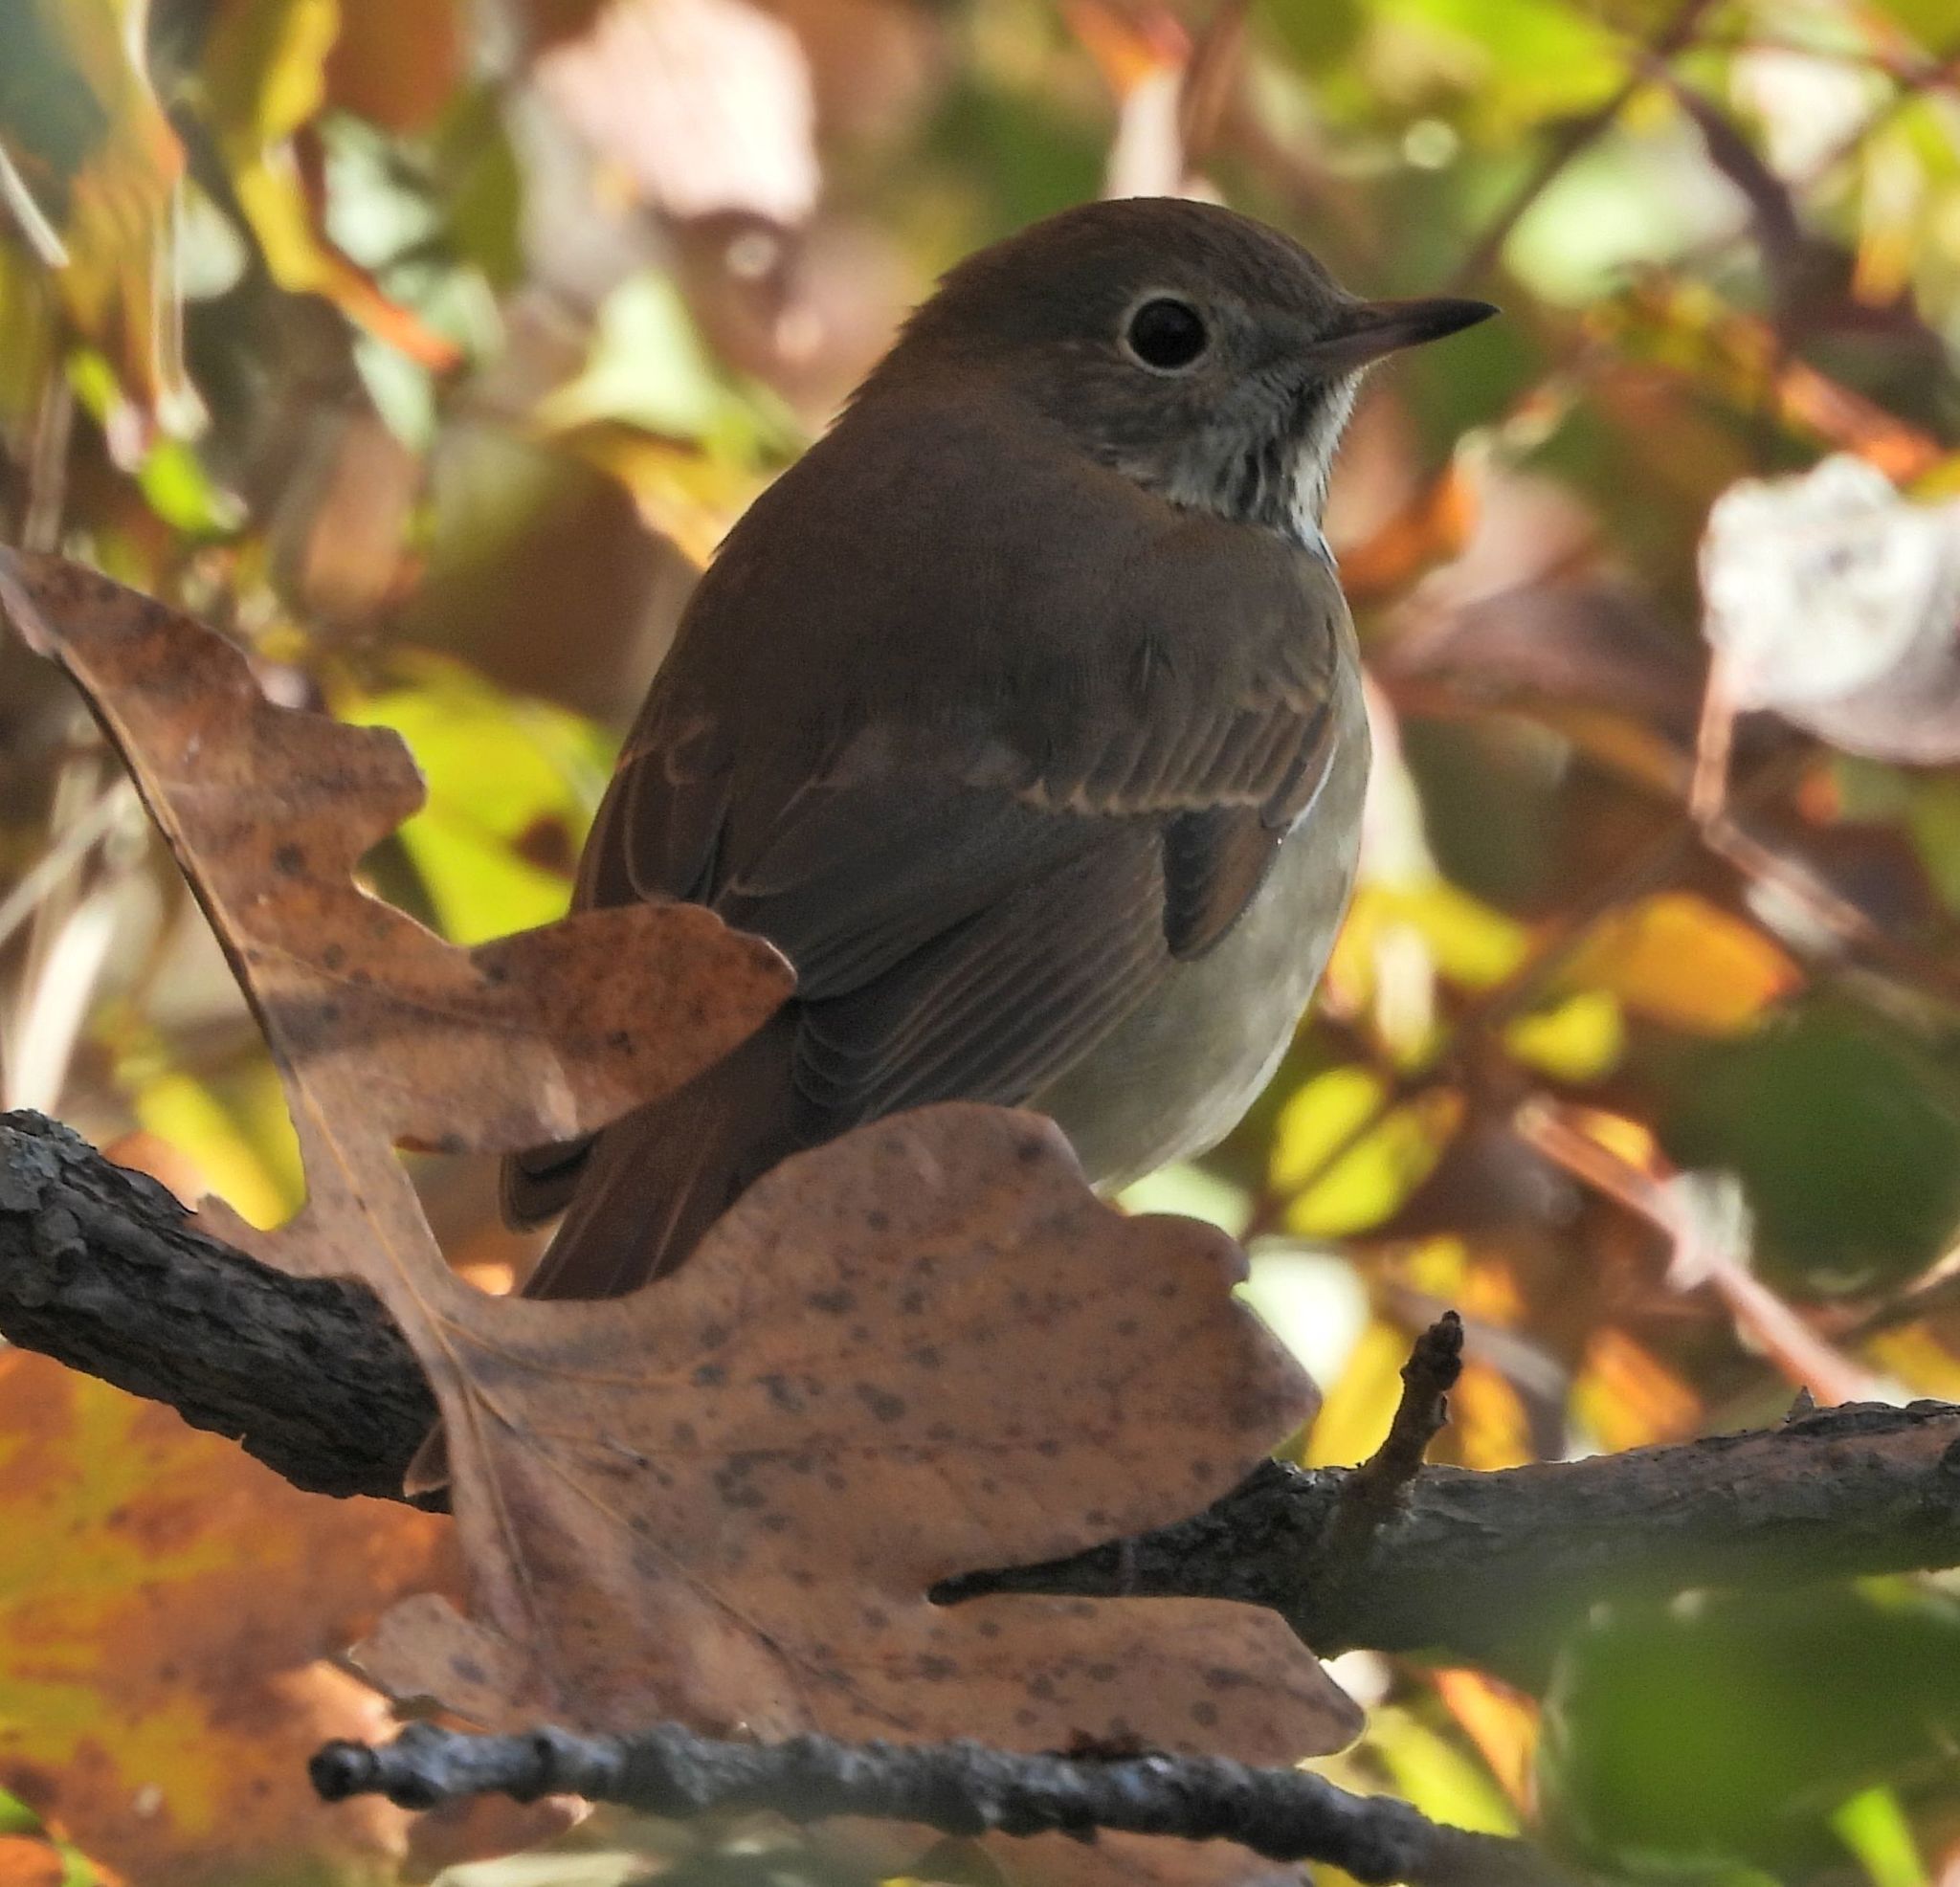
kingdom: Animalia
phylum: Chordata
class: Aves
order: Passeriformes
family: Turdidae
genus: Catharus
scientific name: Catharus guttatus
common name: Hermit thrush
